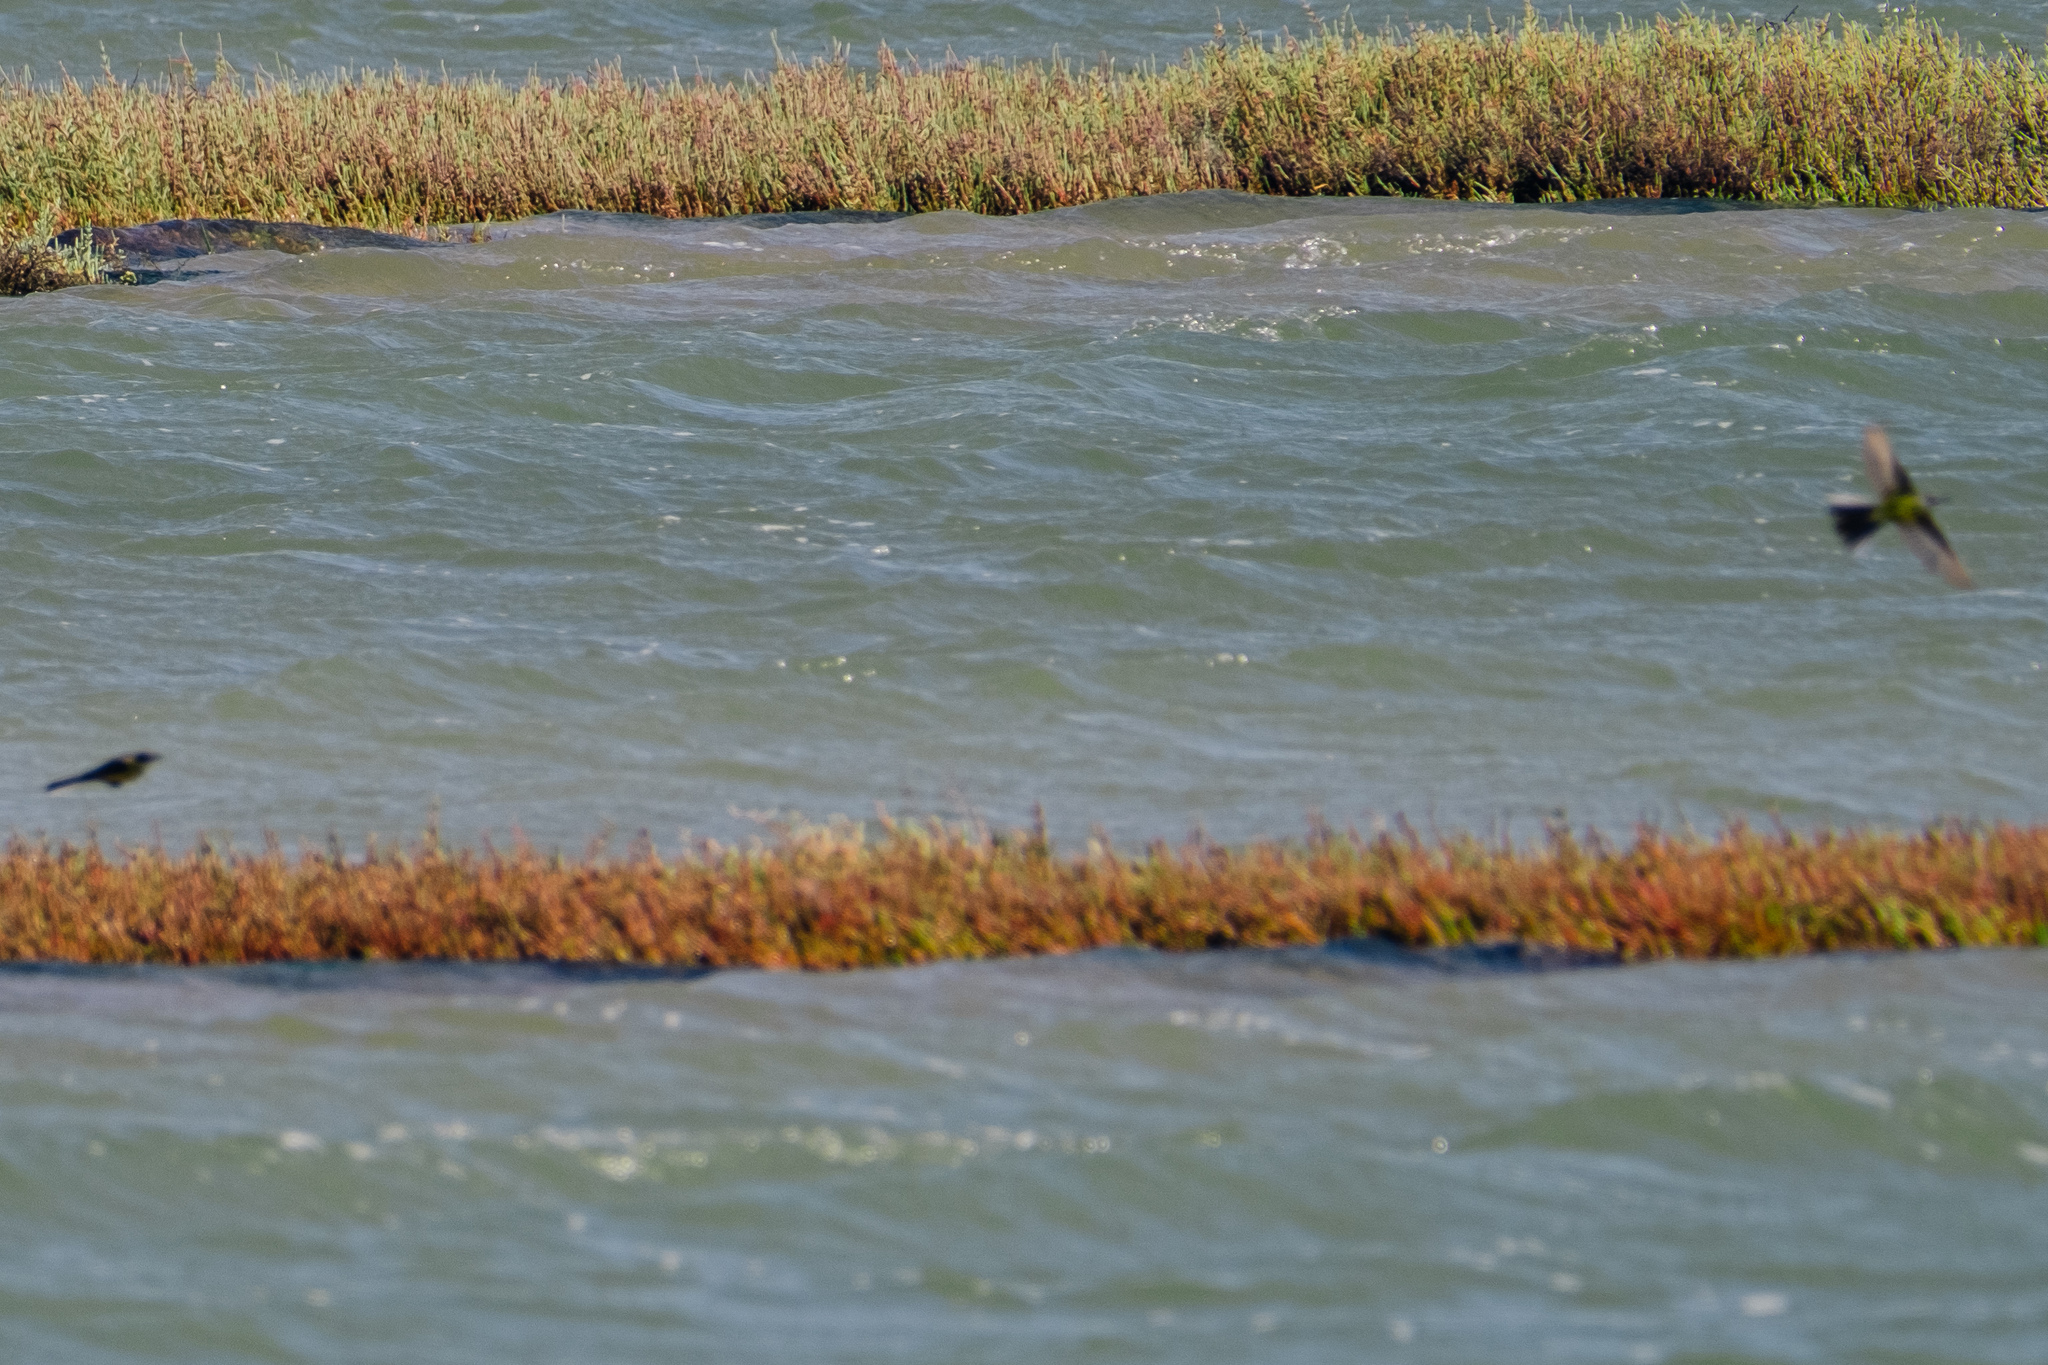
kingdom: Animalia
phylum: Chordata
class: Aves
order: Passeriformes
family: Motacillidae
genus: Motacilla
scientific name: Motacilla flava
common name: Western yellow wagtail
